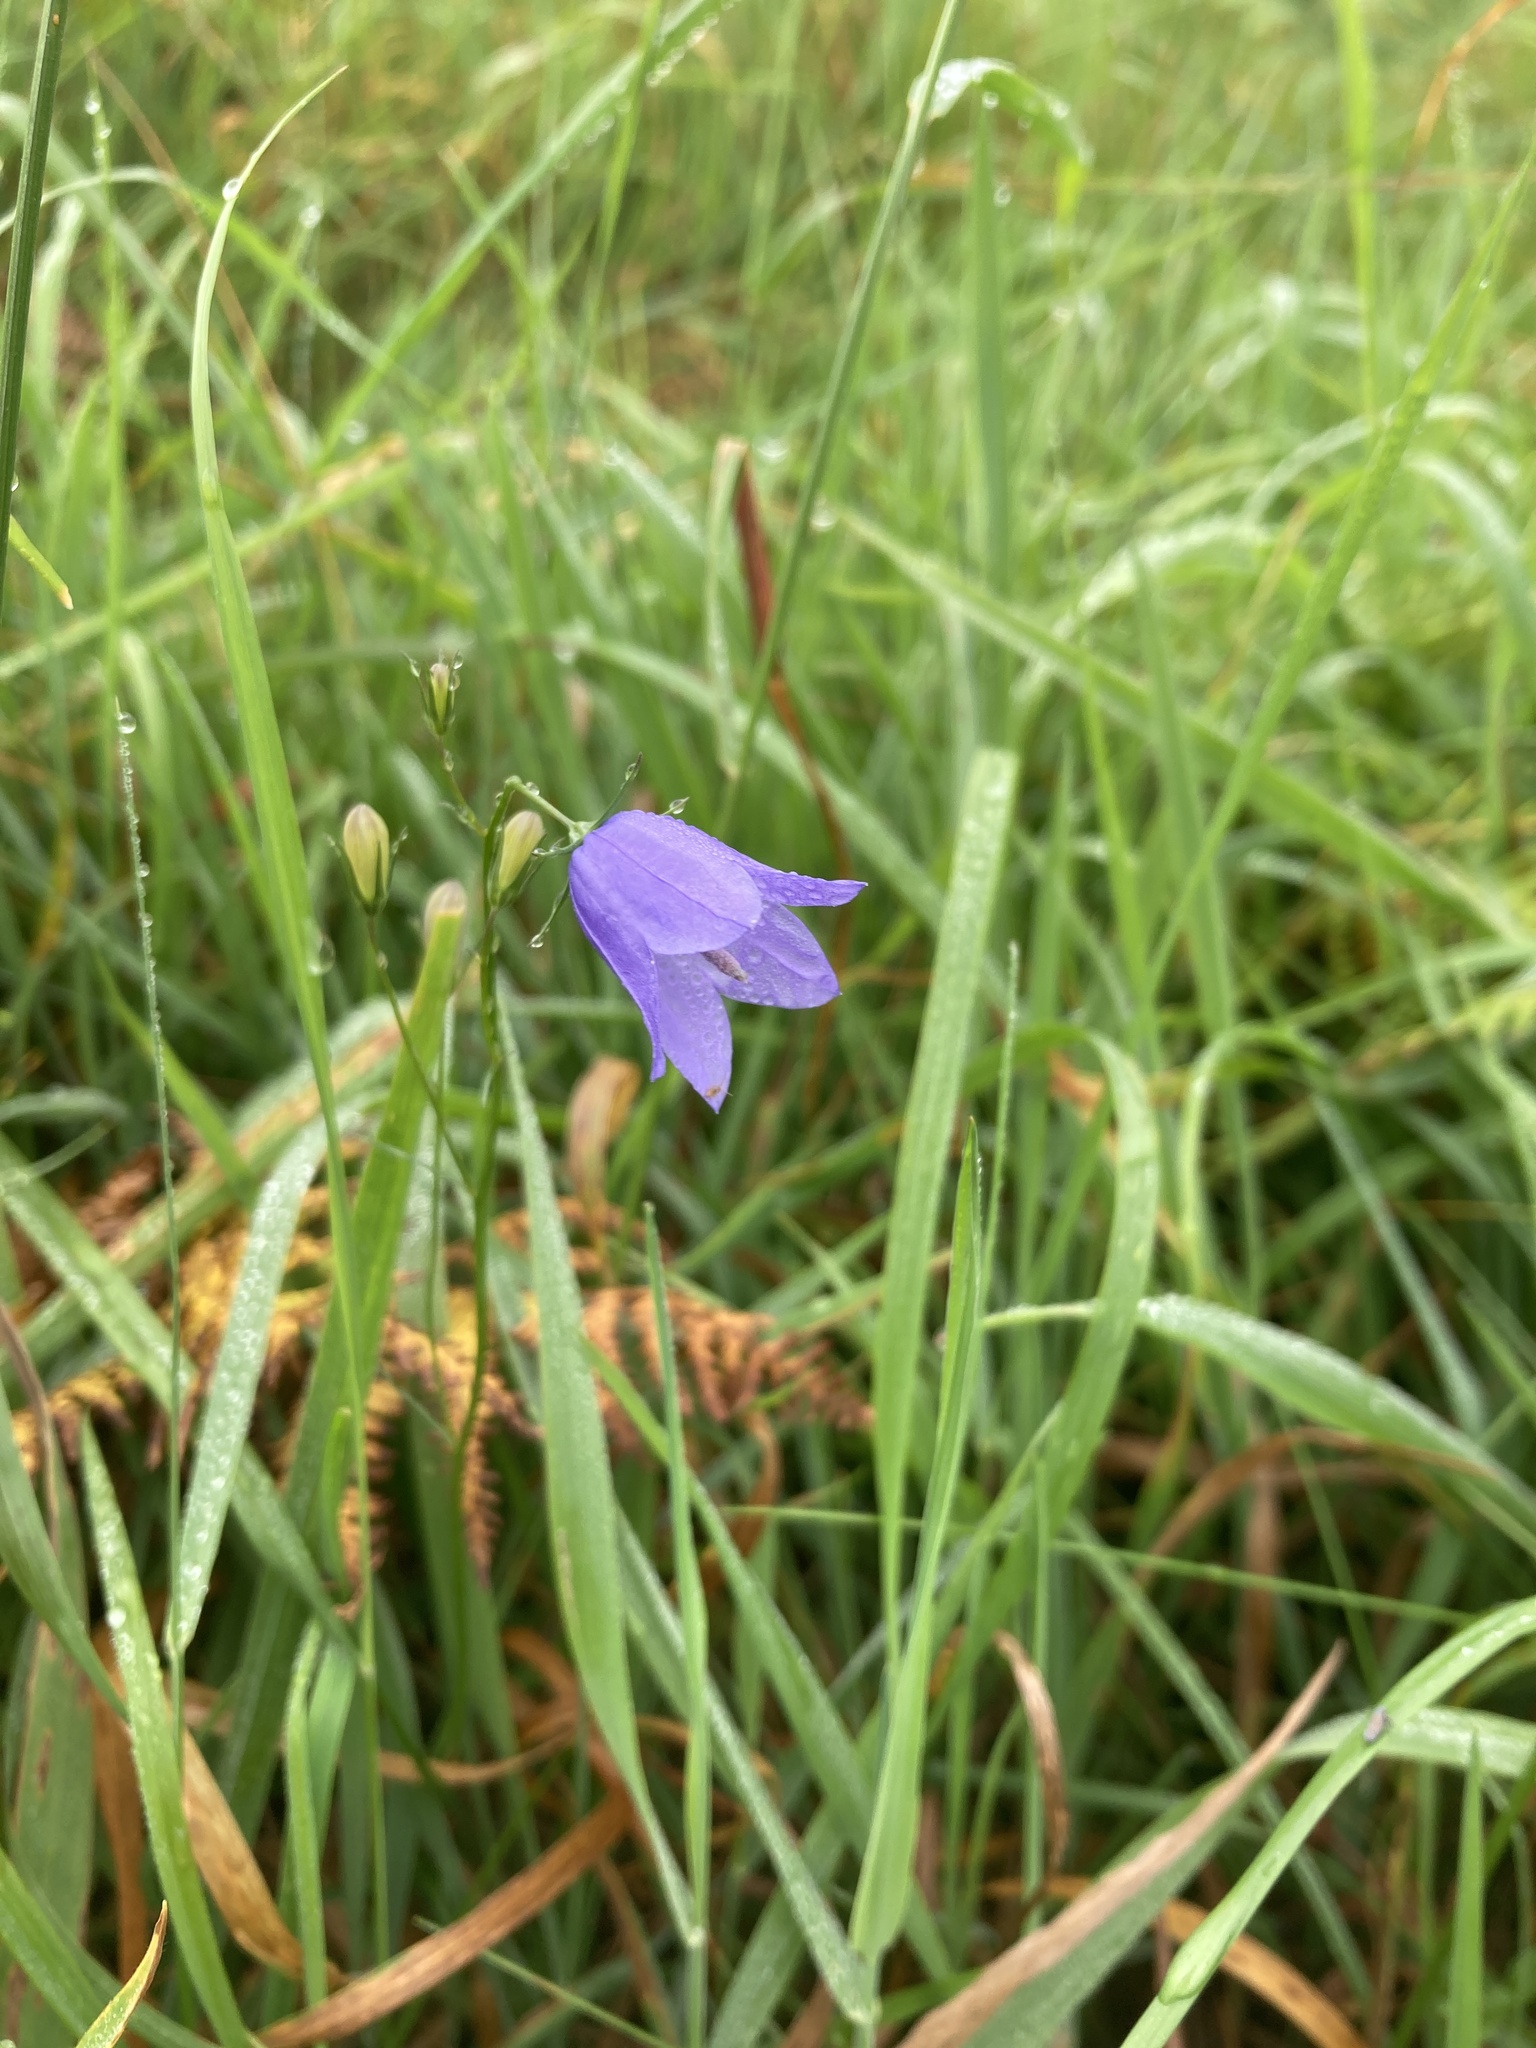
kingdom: Plantae
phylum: Tracheophyta
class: Magnoliopsida
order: Asterales
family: Campanulaceae
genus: Campanula
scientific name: Campanula rotundifolia
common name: Harebell
